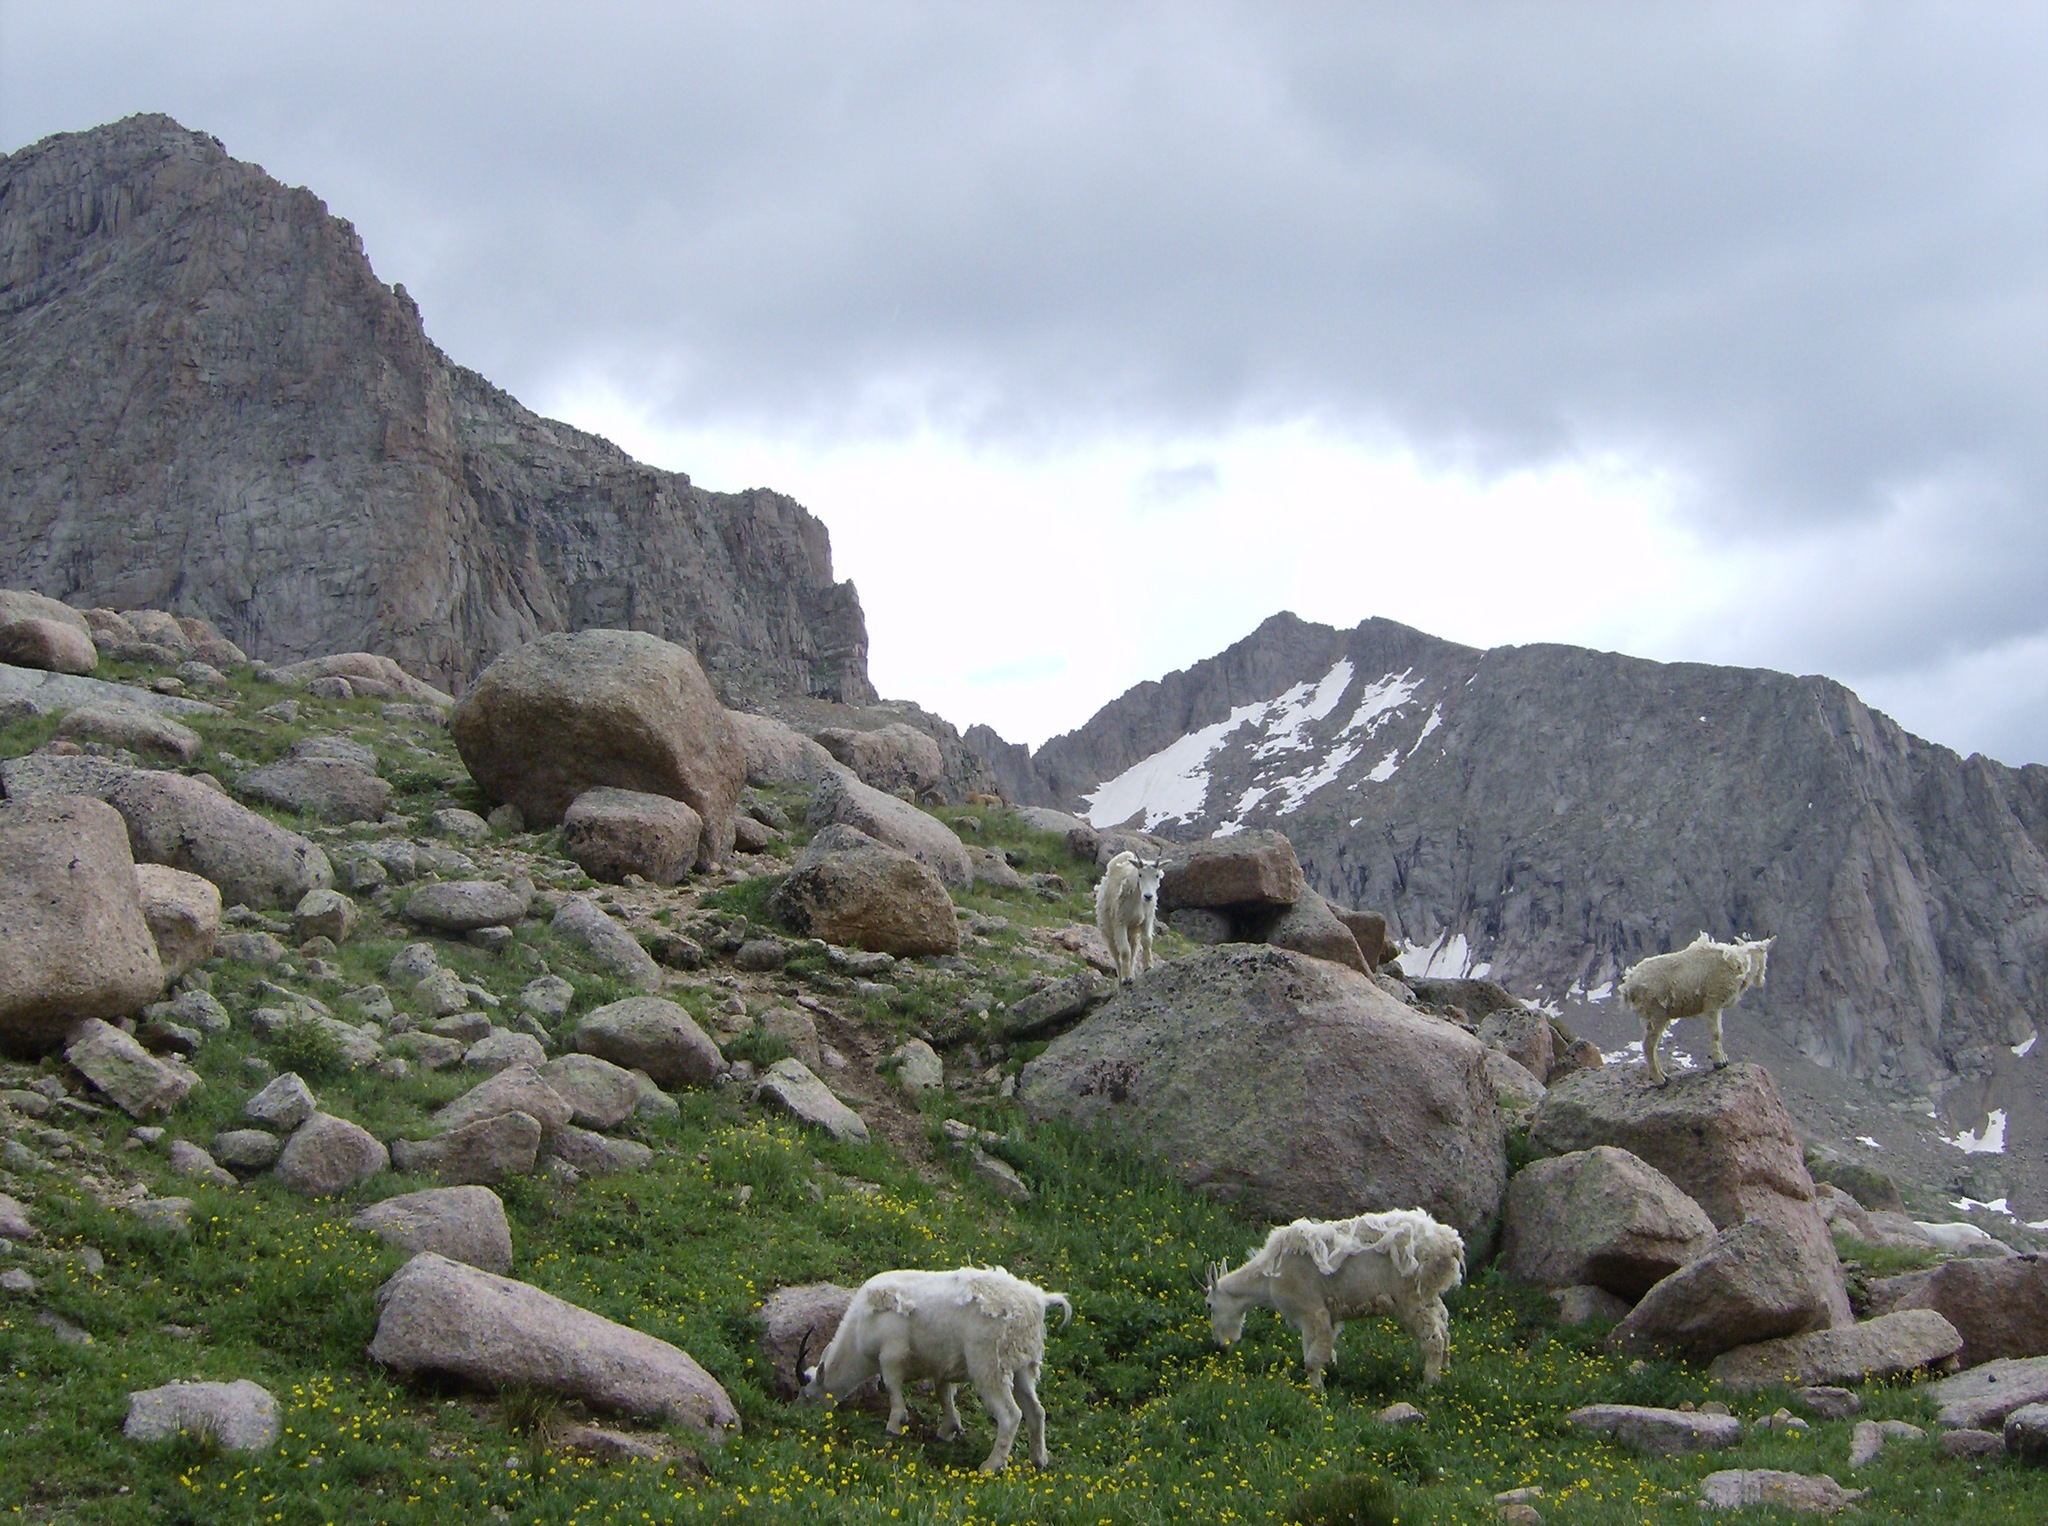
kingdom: Animalia
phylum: Chordata
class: Mammalia
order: Artiodactyla
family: Bovidae
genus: Oreamnos
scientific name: Oreamnos americanus
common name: Mountain goat
